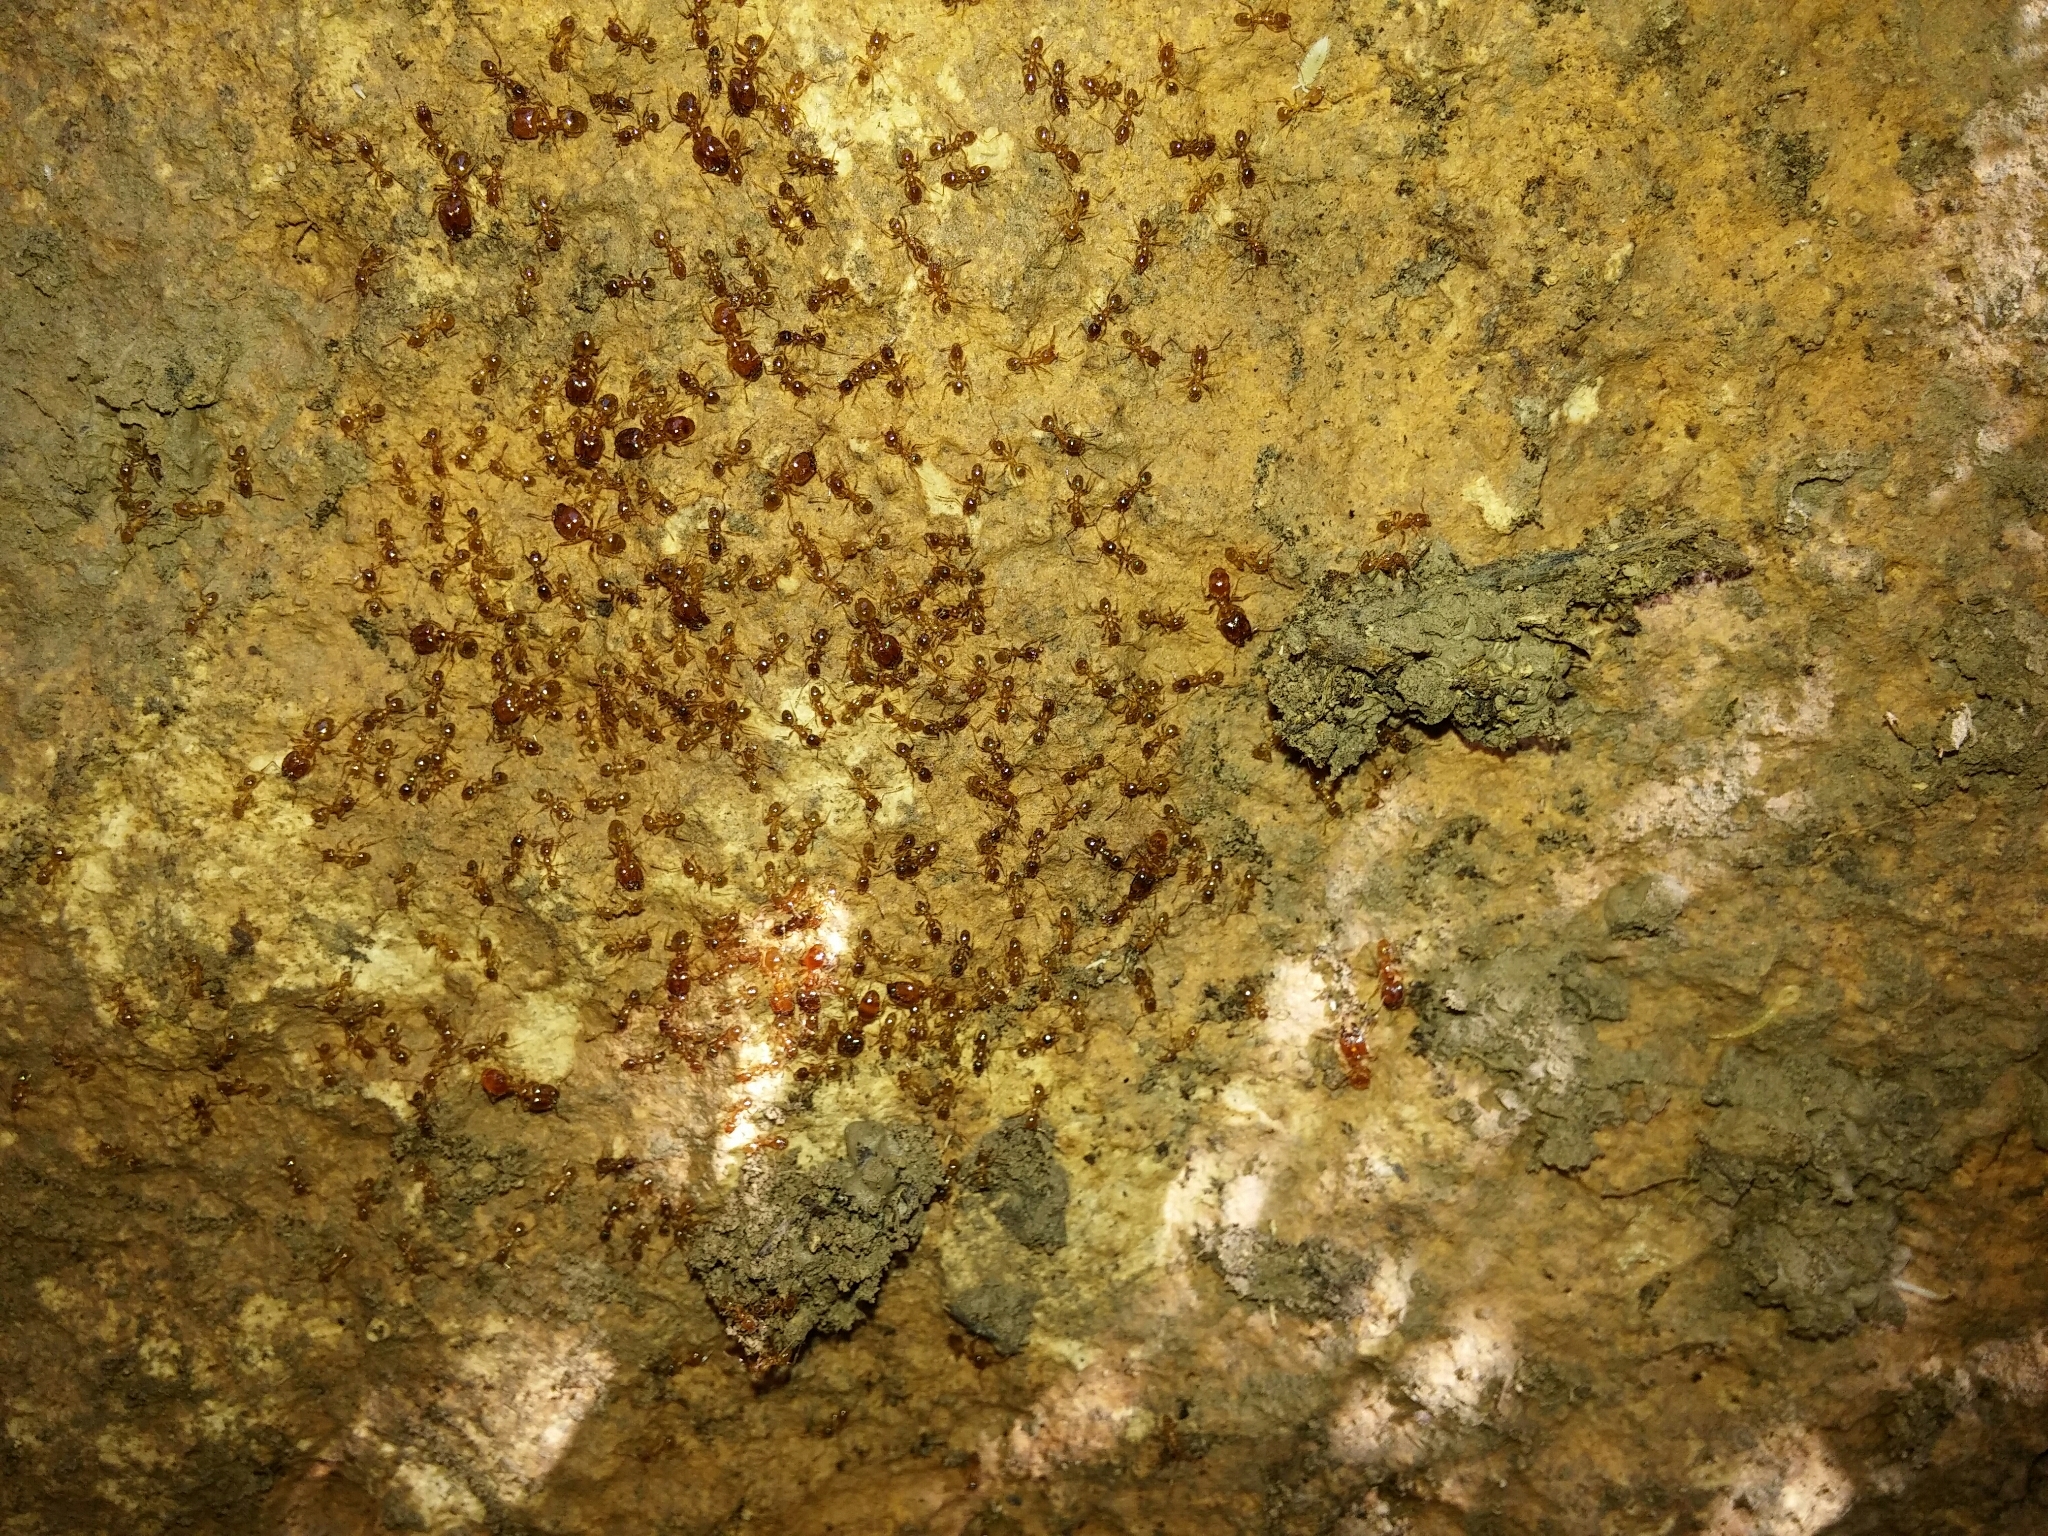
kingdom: Animalia
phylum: Arthropoda
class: Insecta
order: Hymenoptera
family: Formicidae
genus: Pheidole
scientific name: Pheidole pallidula
